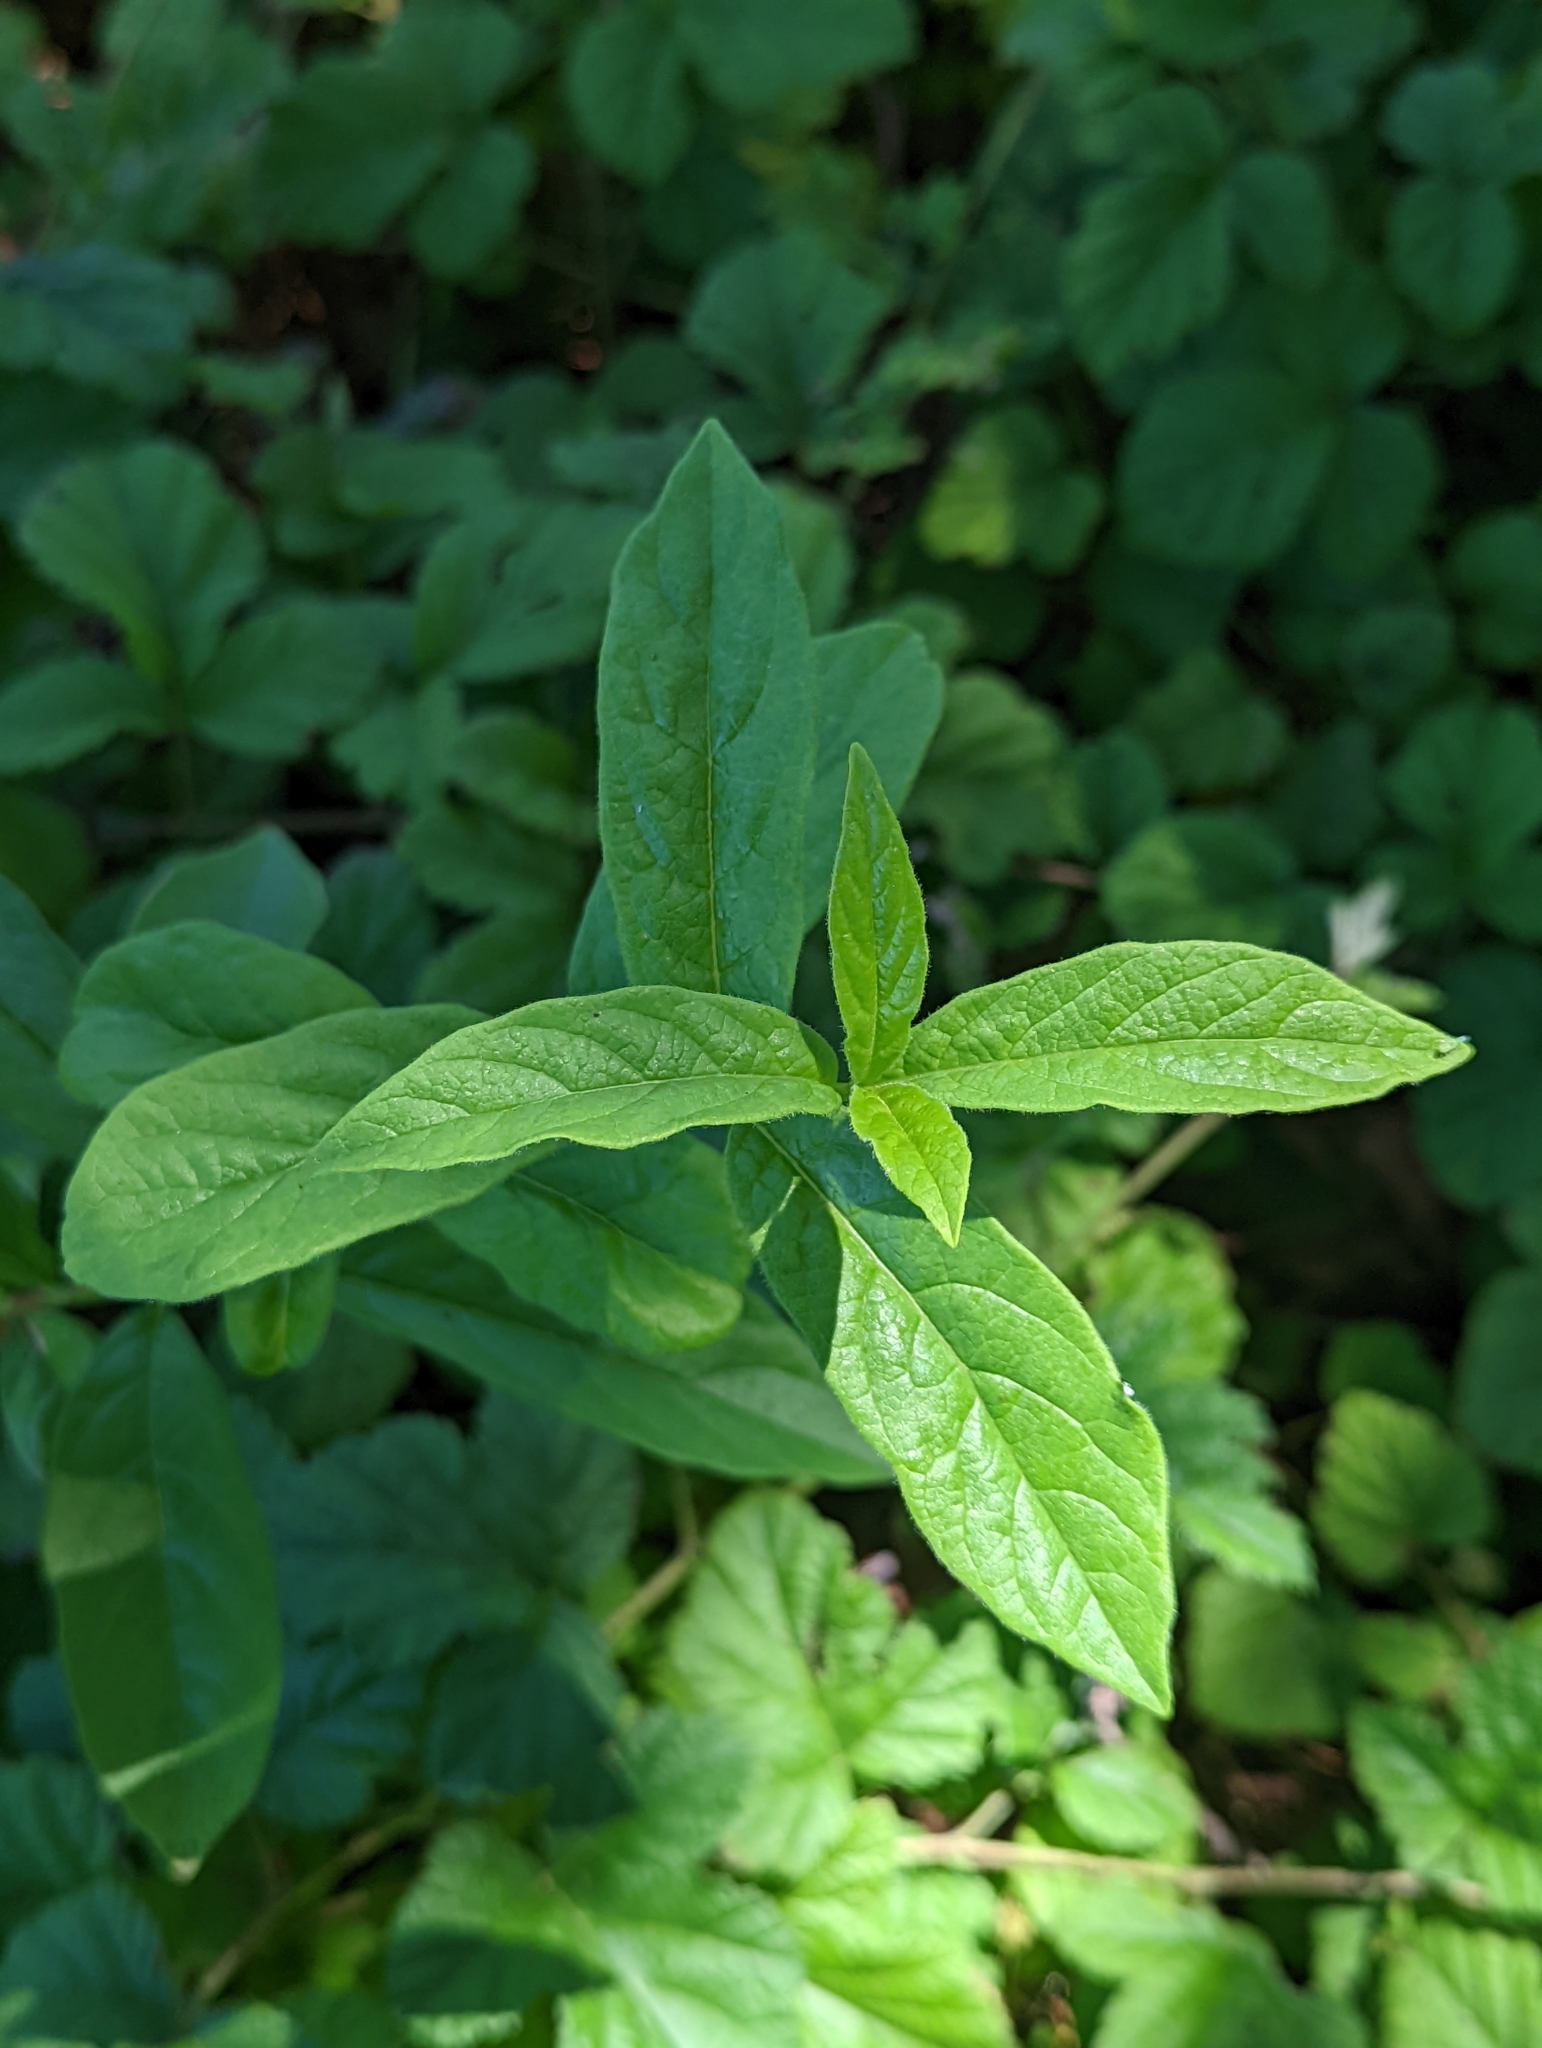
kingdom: Plantae
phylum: Tracheophyta
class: Magnoliopsida
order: Dipsacales
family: Caprifoliaceae
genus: Lonicera
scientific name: Lonicera involucrata
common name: Californian honeysuckle
